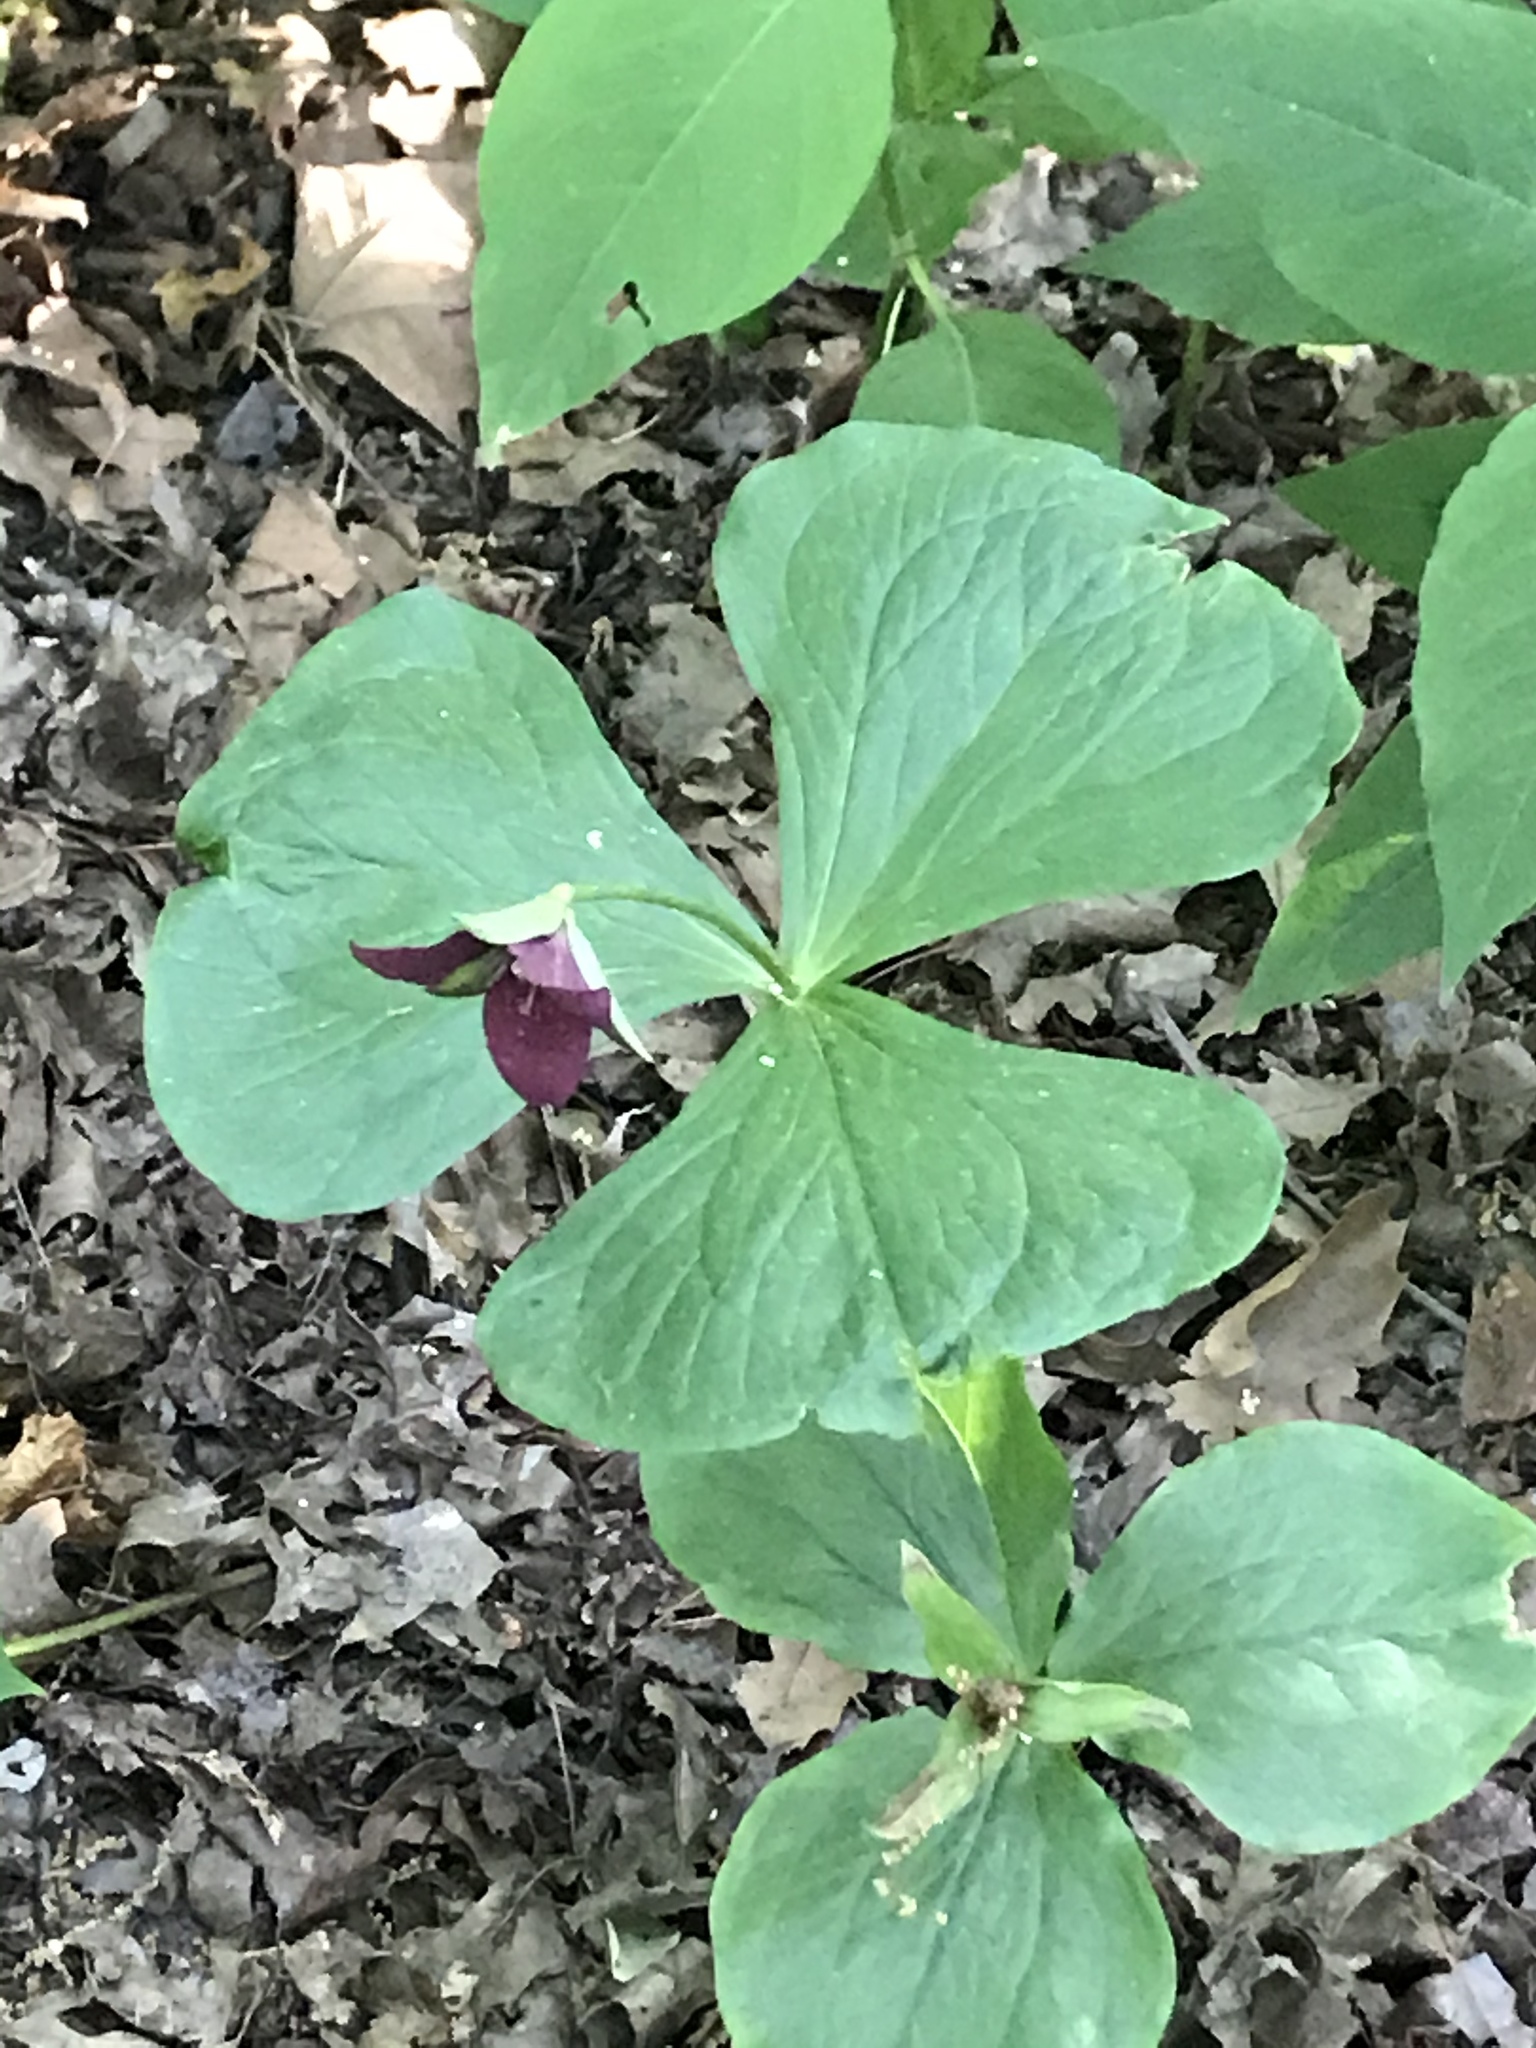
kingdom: Plantae
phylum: Tracheophyta
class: Liliopsida
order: Liliales
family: Melanthiaceae
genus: Trillium
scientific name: Trillium
